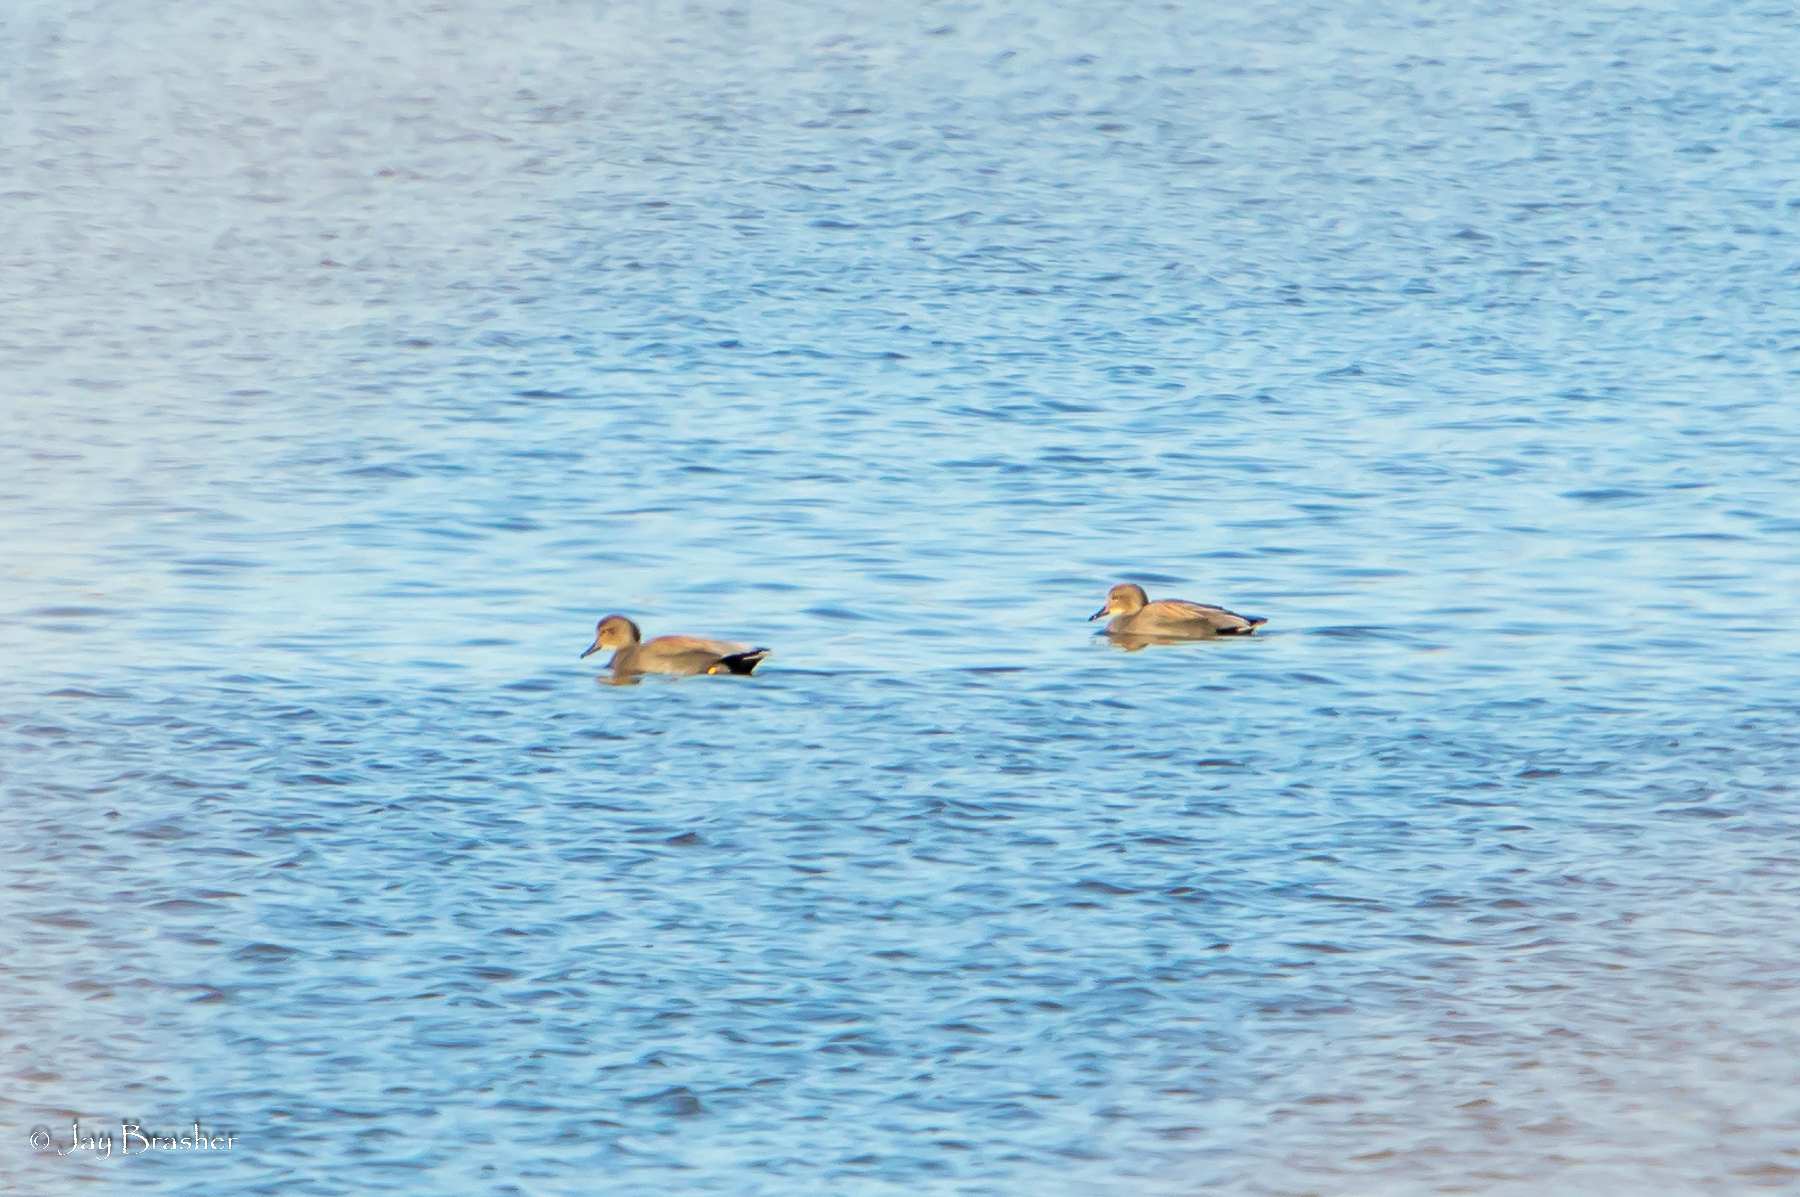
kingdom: Animalia
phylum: Chordata
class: Aves
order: Anseriformes
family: Anatidae
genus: Mareca
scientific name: Mareca strepera
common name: Gadwall
